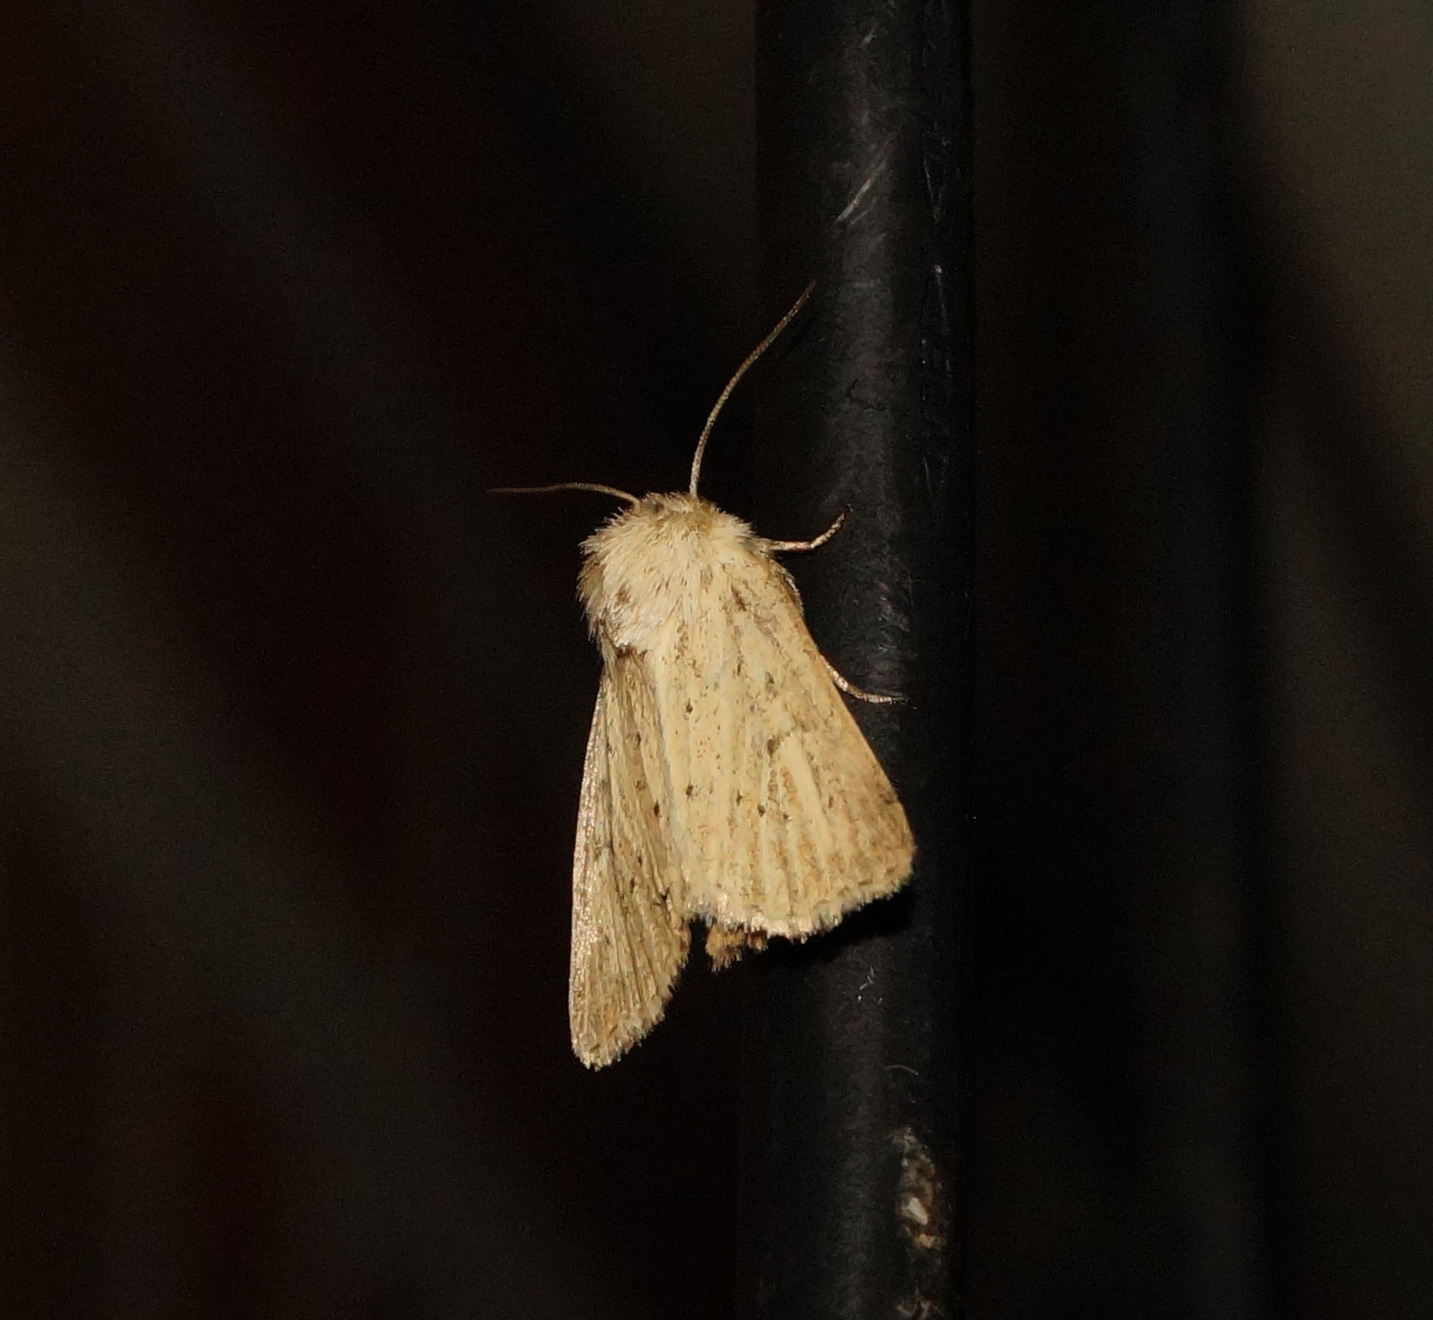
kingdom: Animalia
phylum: Arthropoda
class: Insecta
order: Lepidoptera
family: Noctuidae
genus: Photedes
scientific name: Photedes extrema
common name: Concolorous
